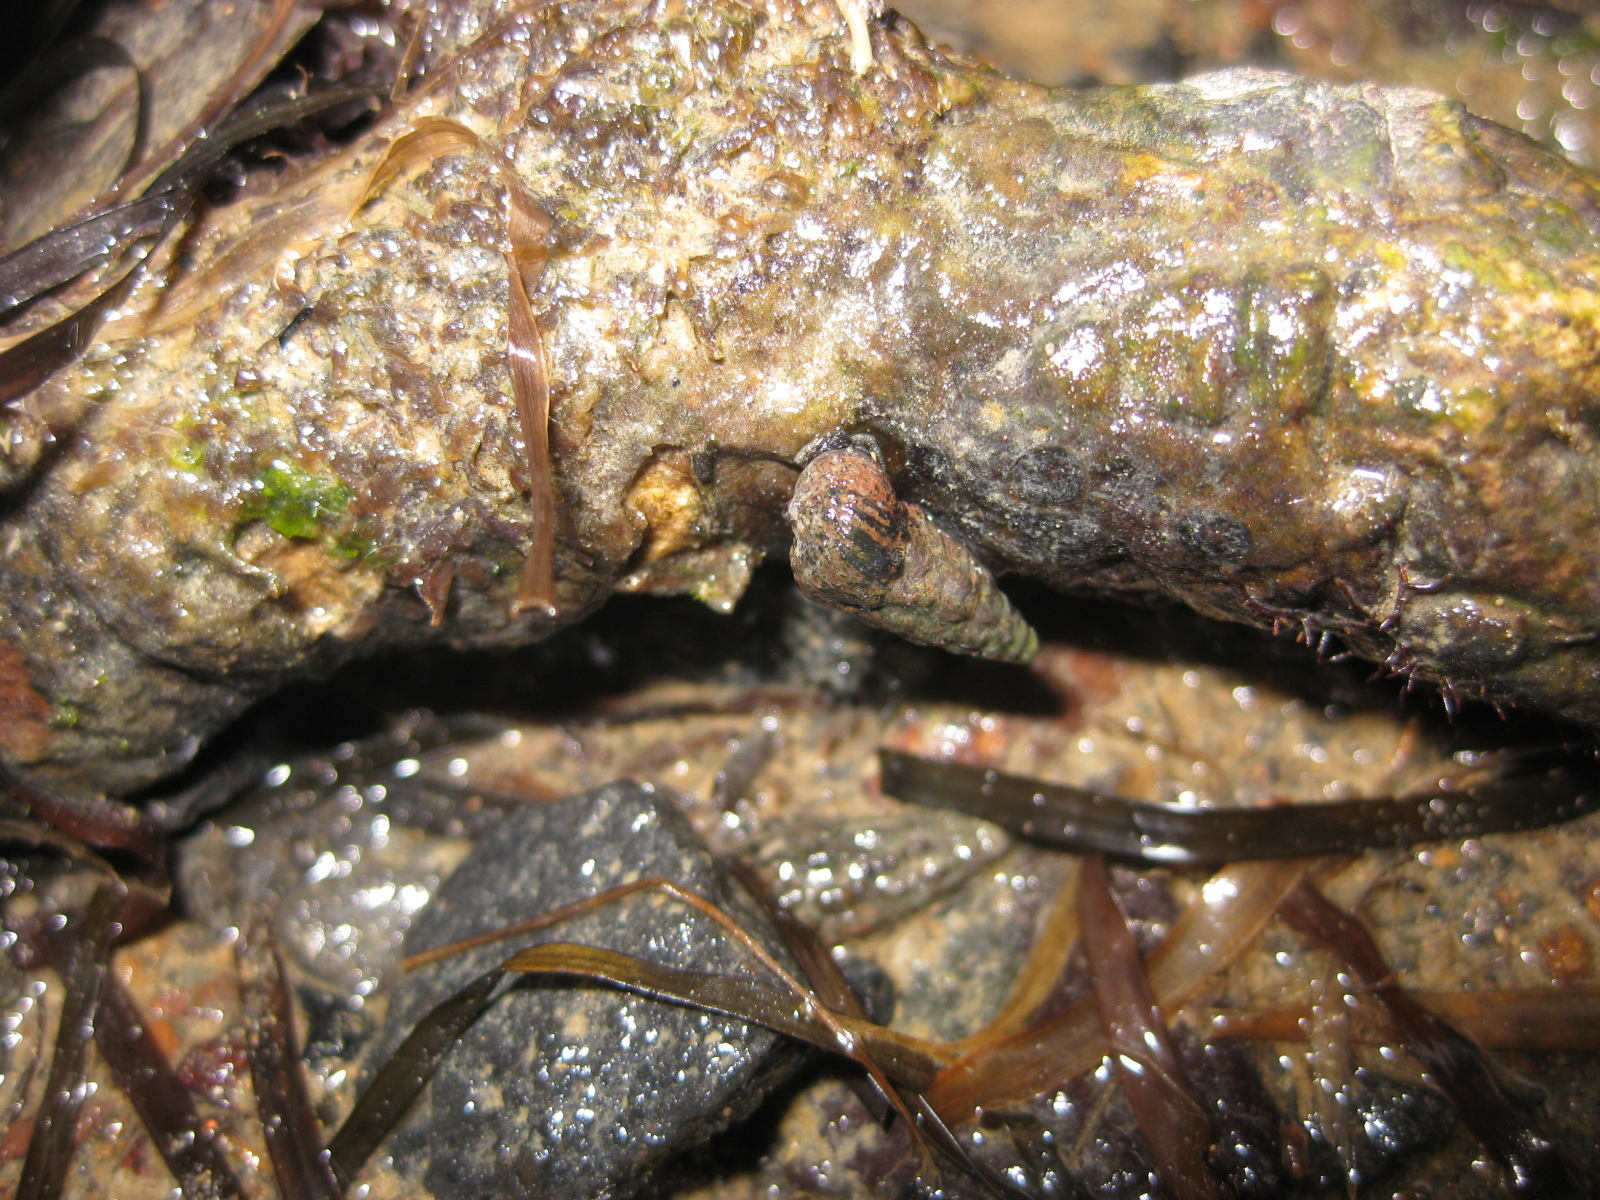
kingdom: Animalia
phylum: Mollusca
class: Gastropoda
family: Batillariidae
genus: Zeacumantus
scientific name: Zeacumantus subcarinatus
